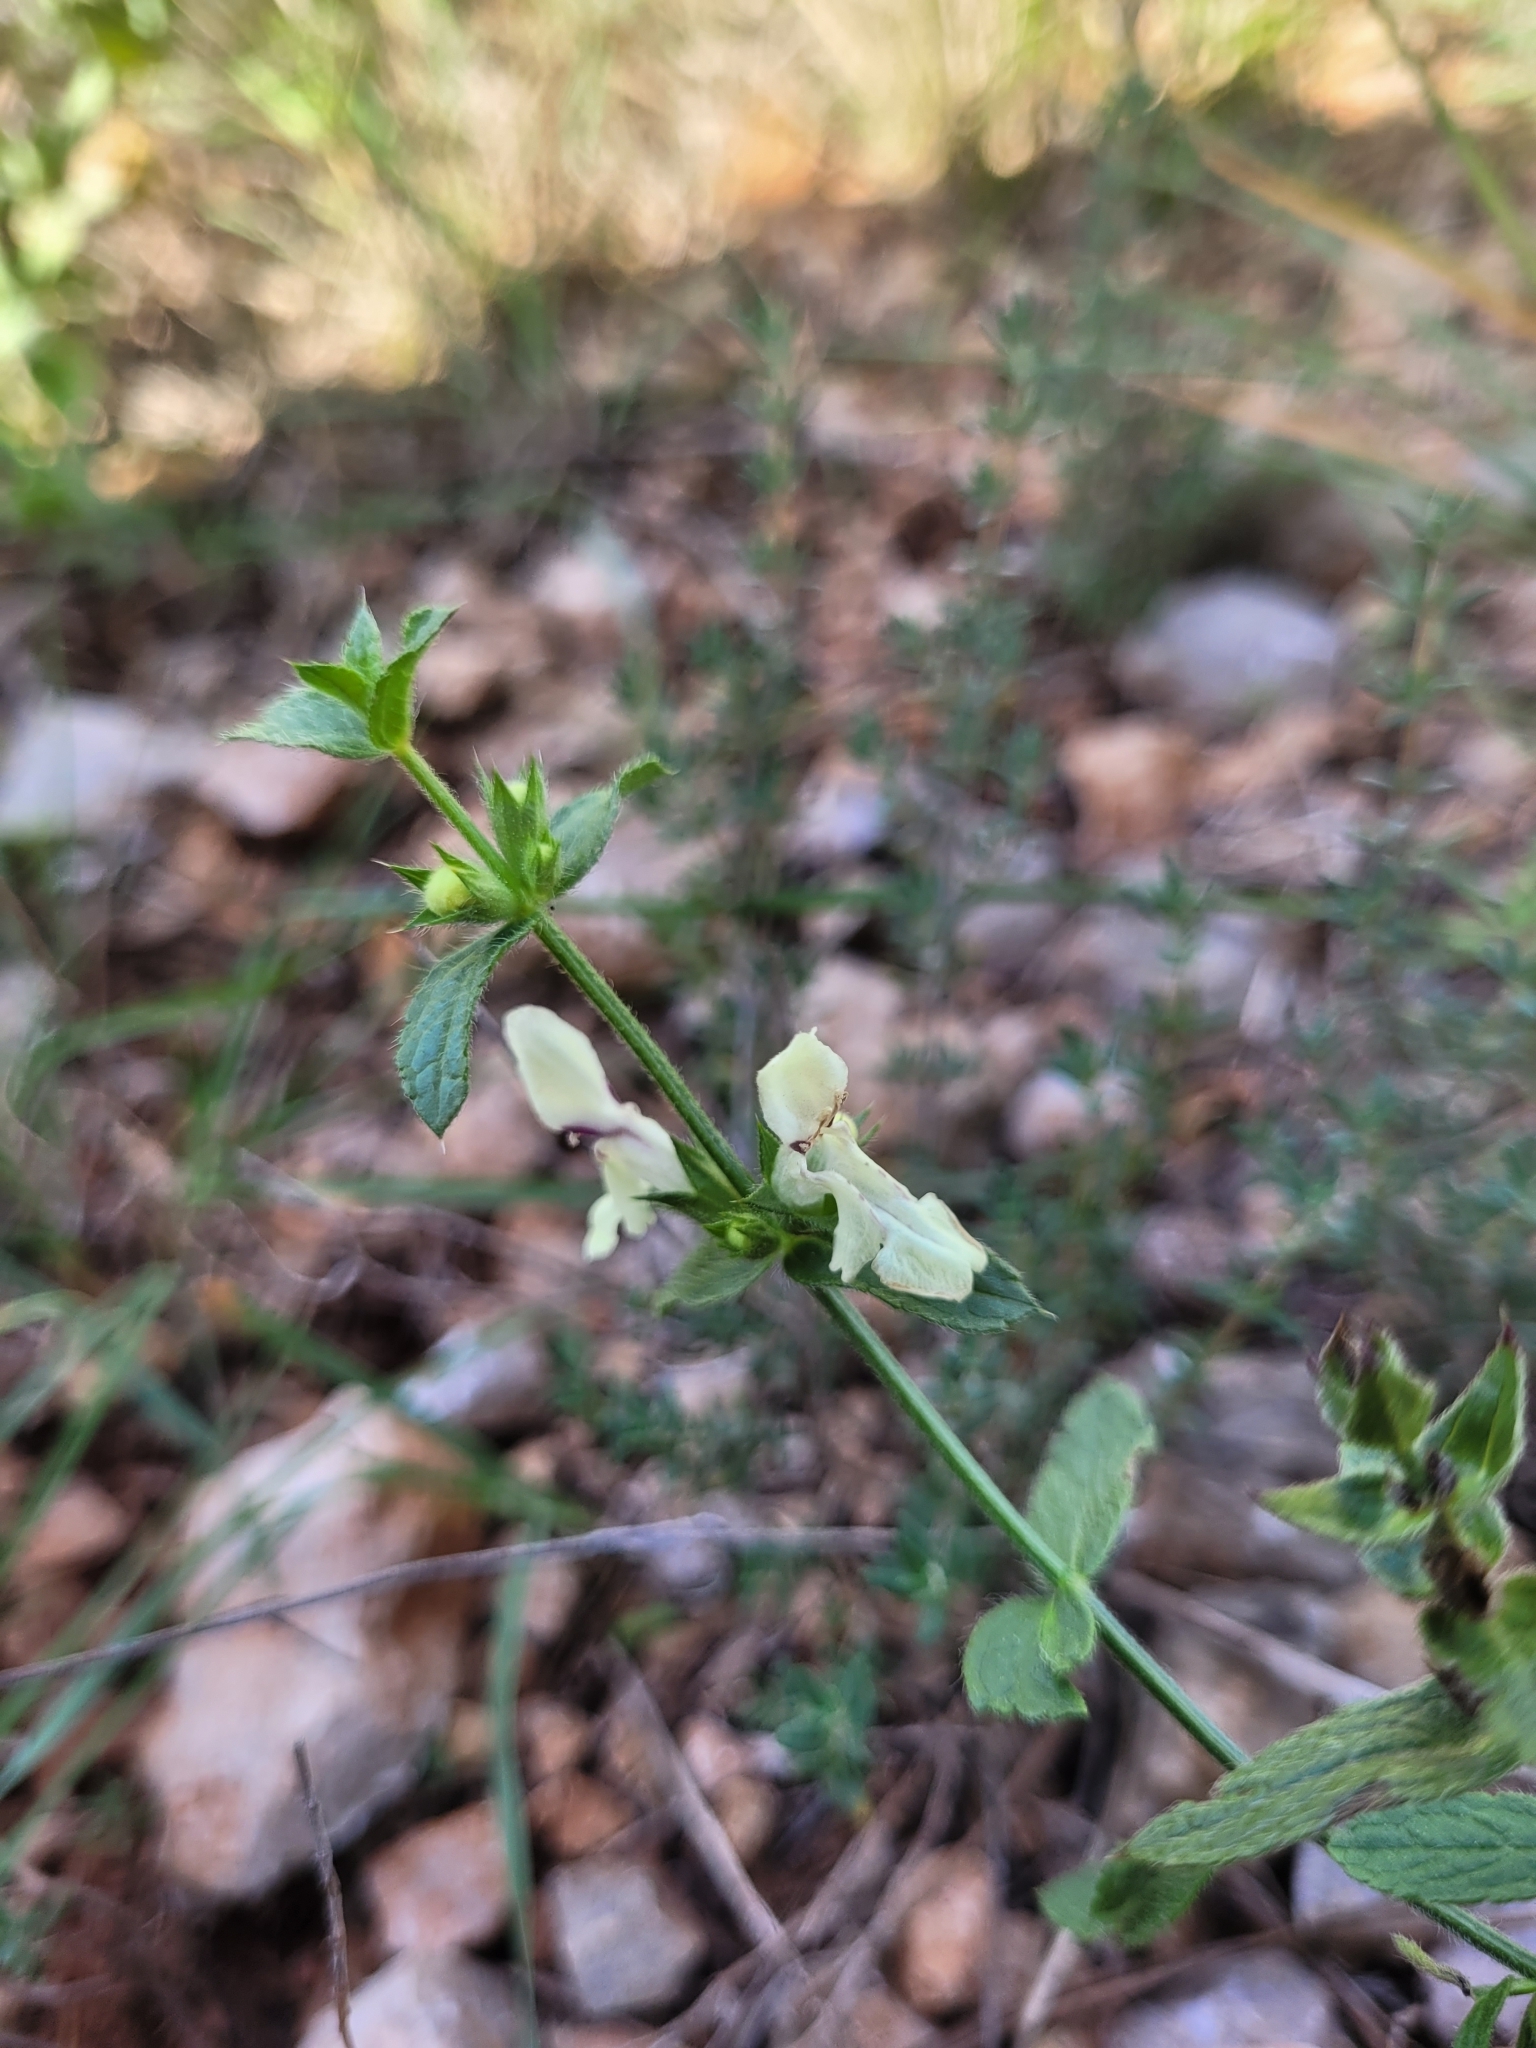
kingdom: Plantae
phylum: Tracheophyta
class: Magnoliopsida
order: Lamiales
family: Lamiaceae
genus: Stachys
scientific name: Stachys recta
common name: Perennial yellow-woundwort
